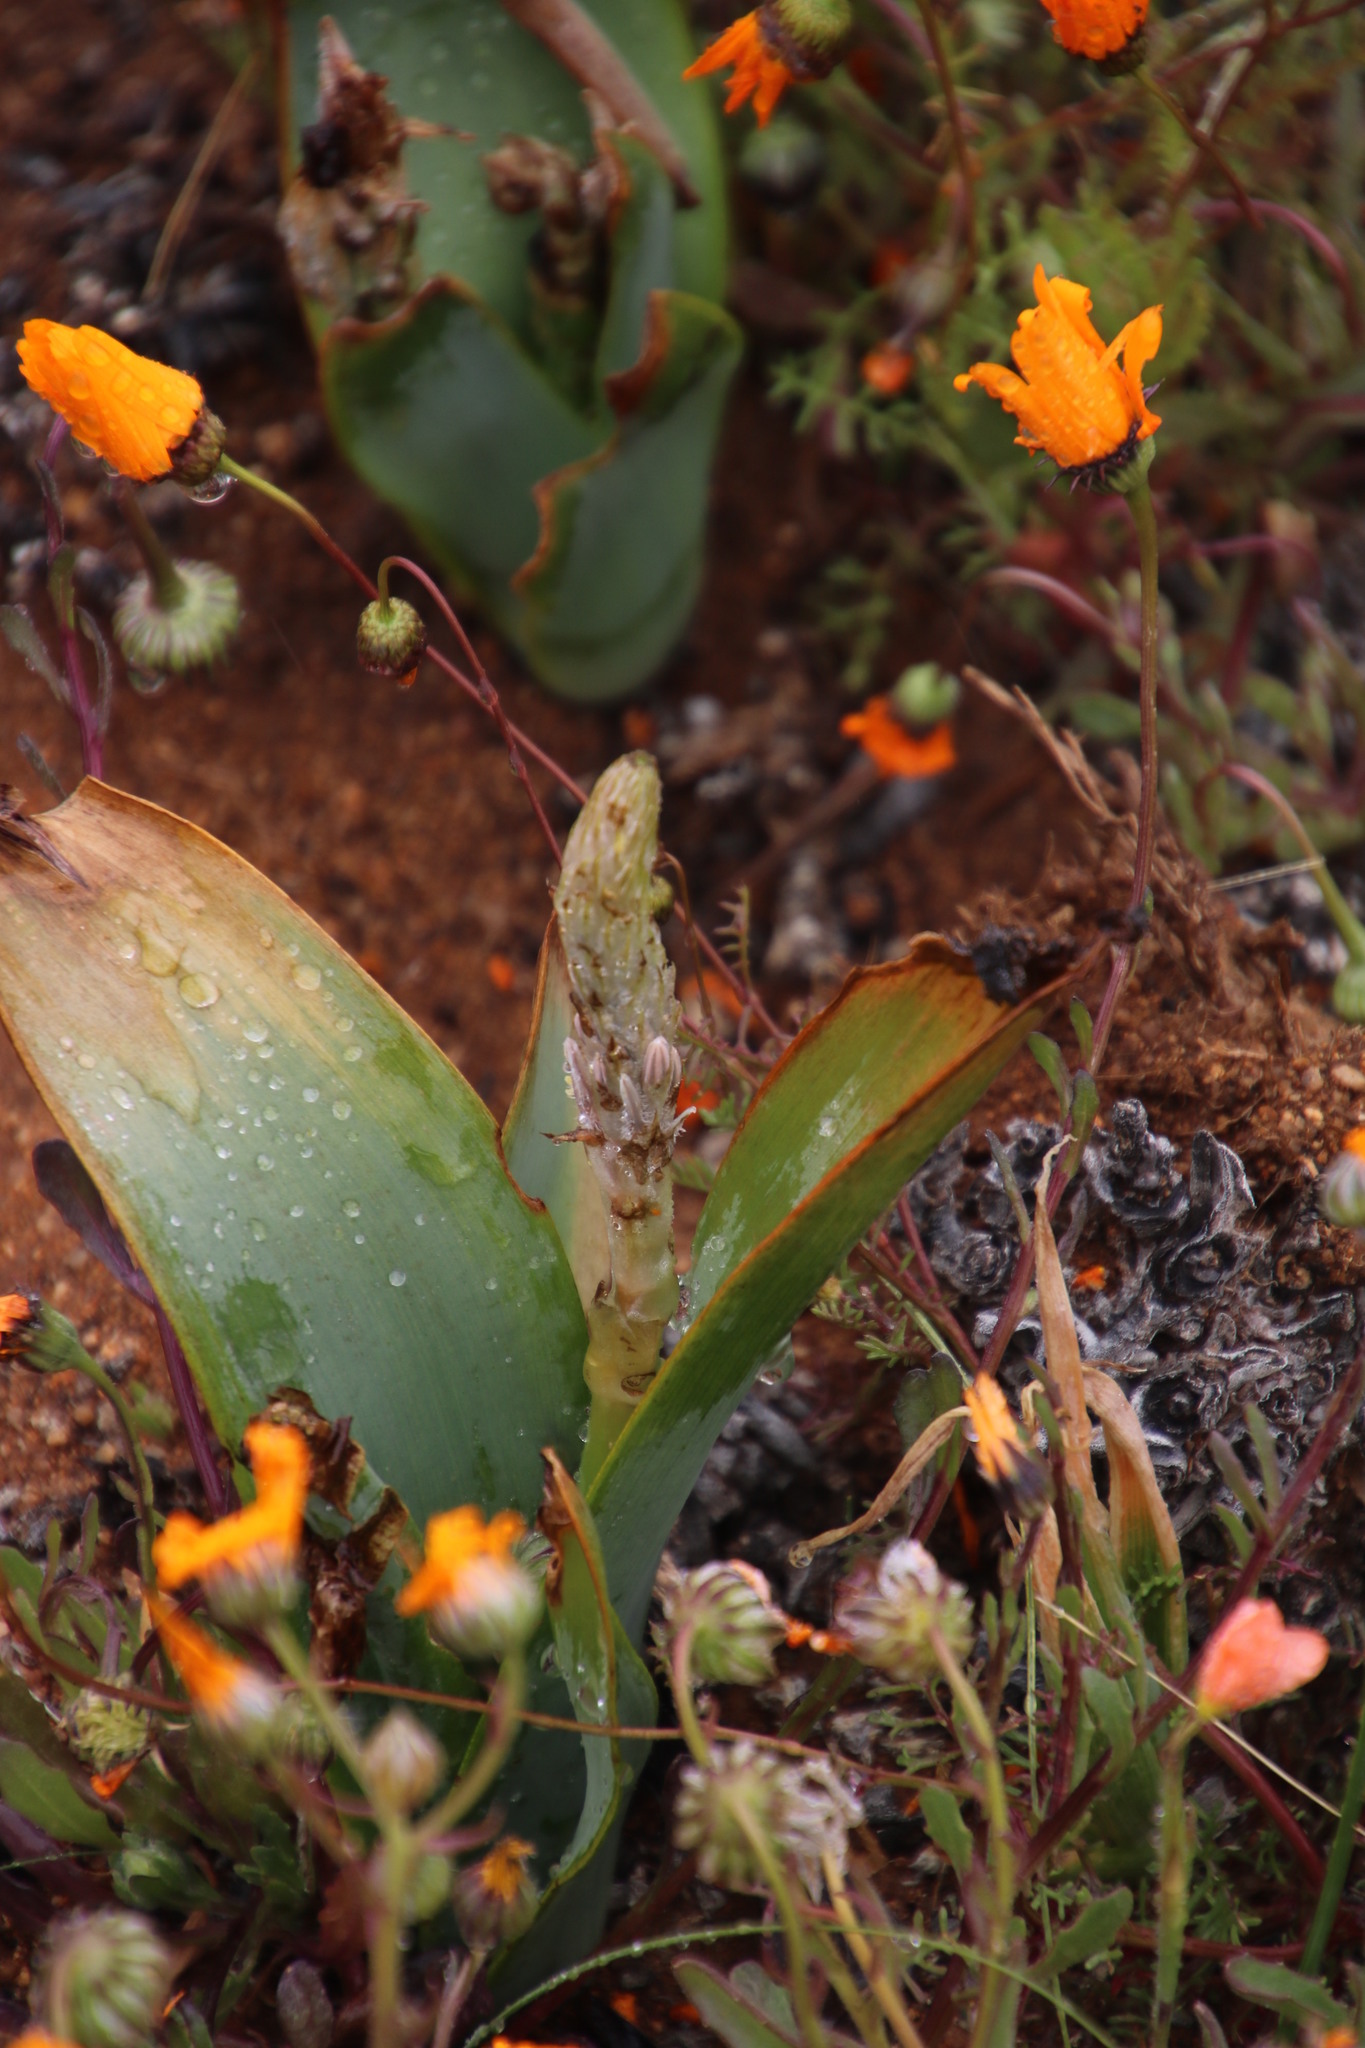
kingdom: Plantae
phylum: Tracheophyta
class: Liliopsida
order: Asparagales
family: Asphodelaceae
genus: Trachyandra
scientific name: Trachyandra falcata
